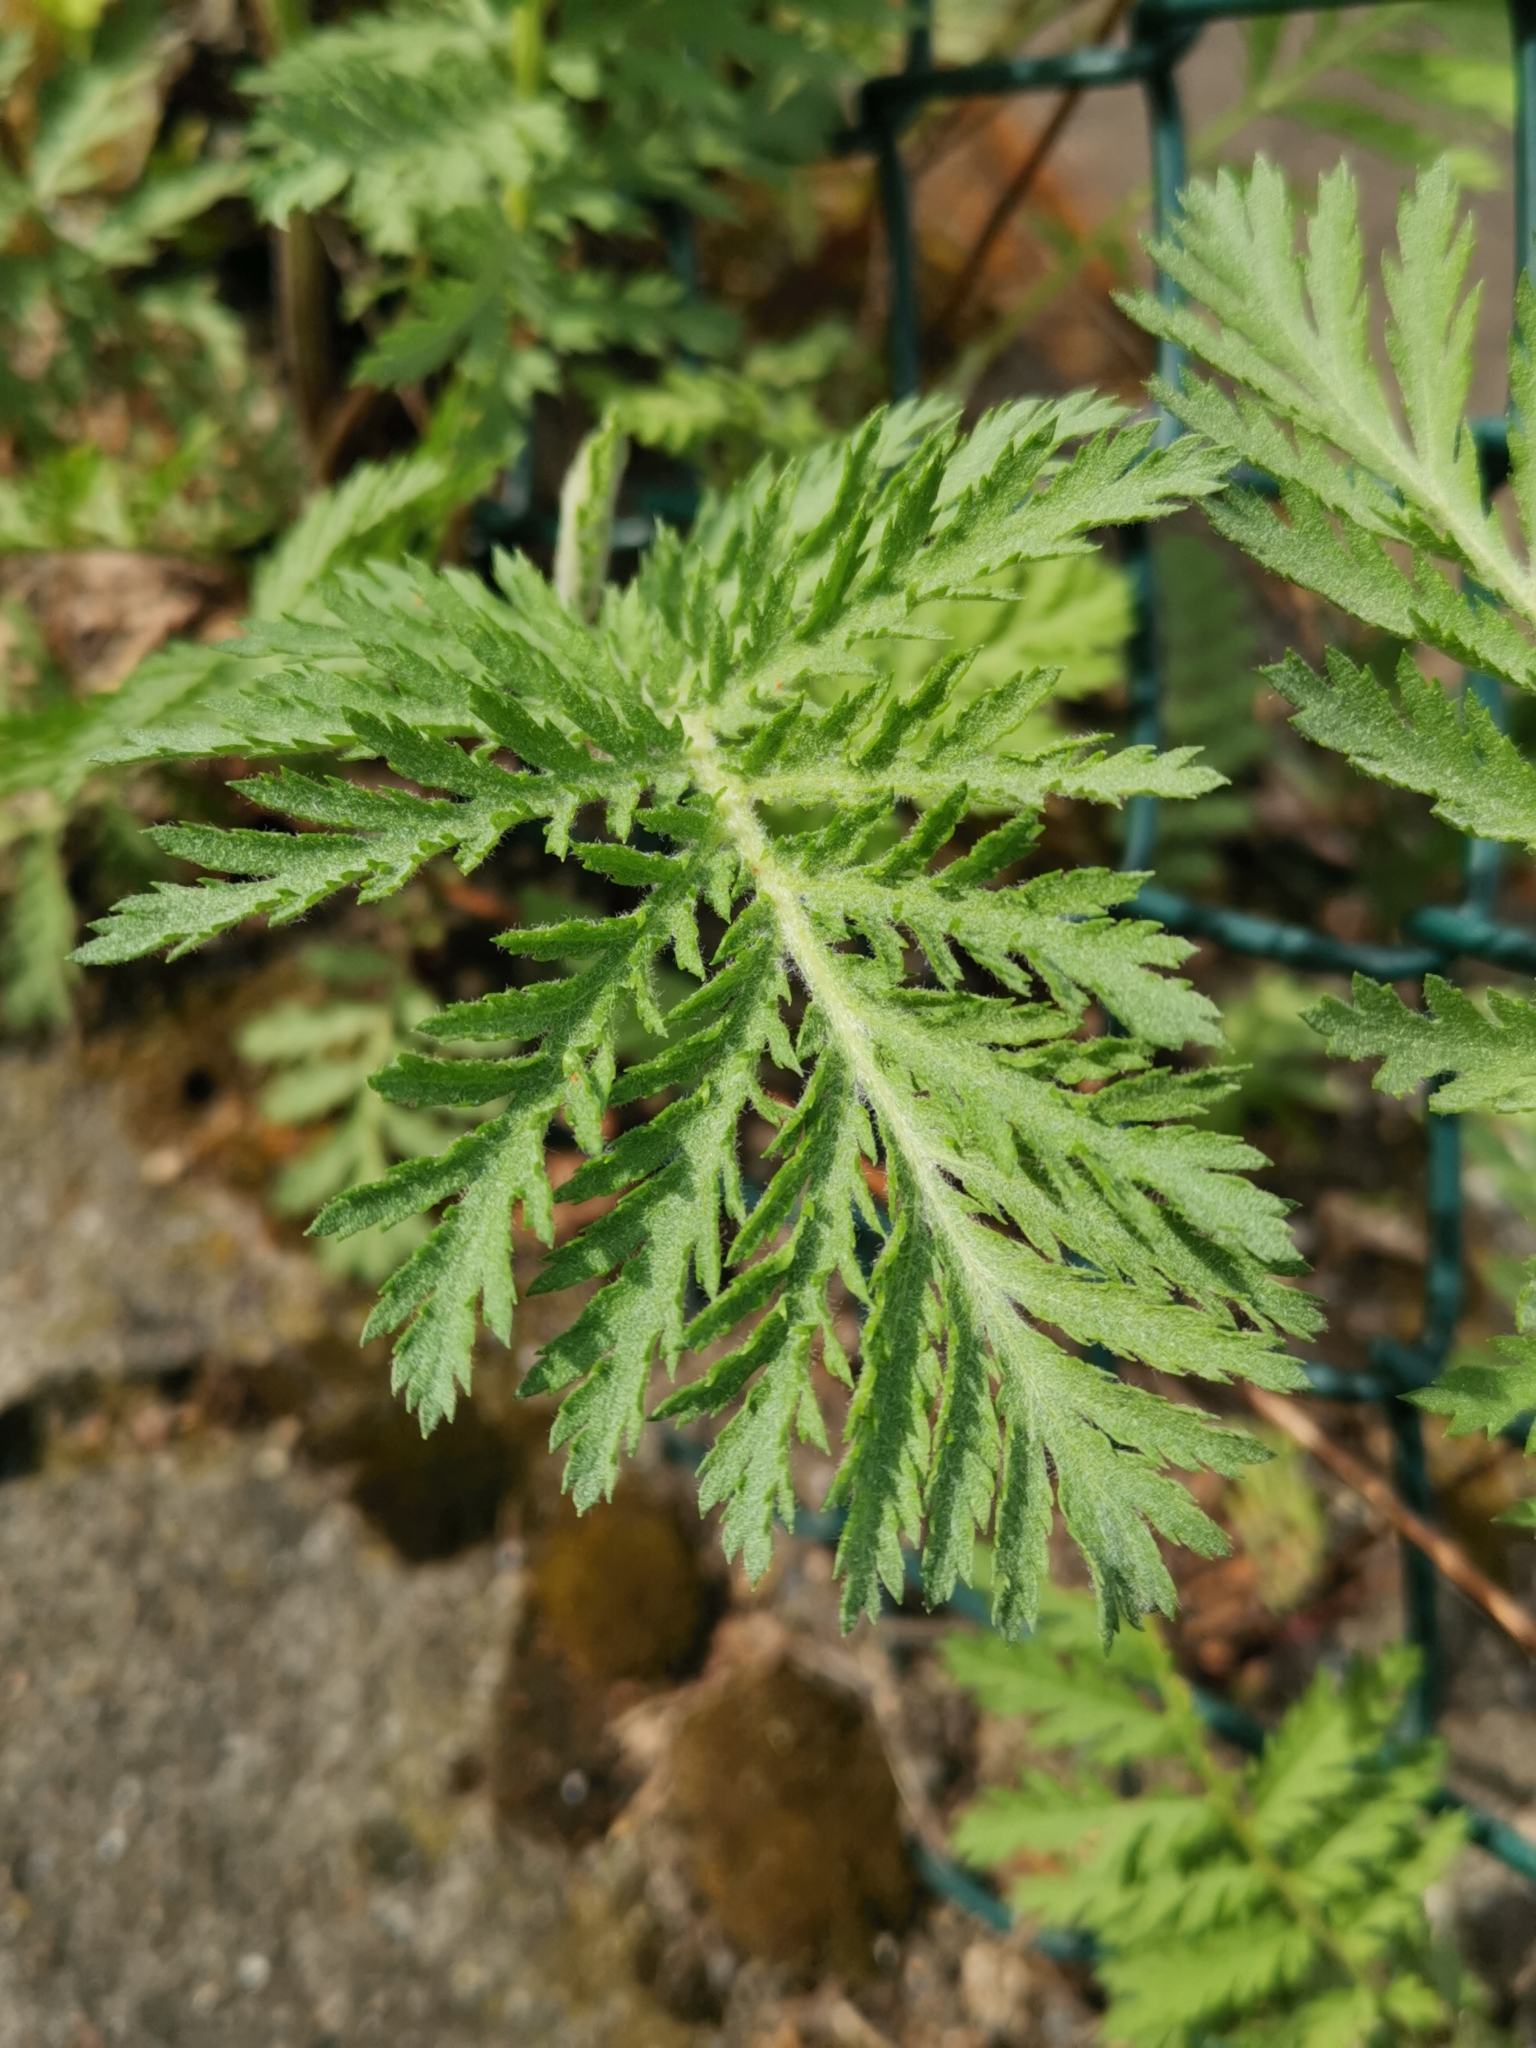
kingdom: Plantae
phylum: Tracheophyta
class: Magnoliopsida
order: Asterales
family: Asteraceae
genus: Tanacetum
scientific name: Tanacetum vulgare
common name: Common tansy
